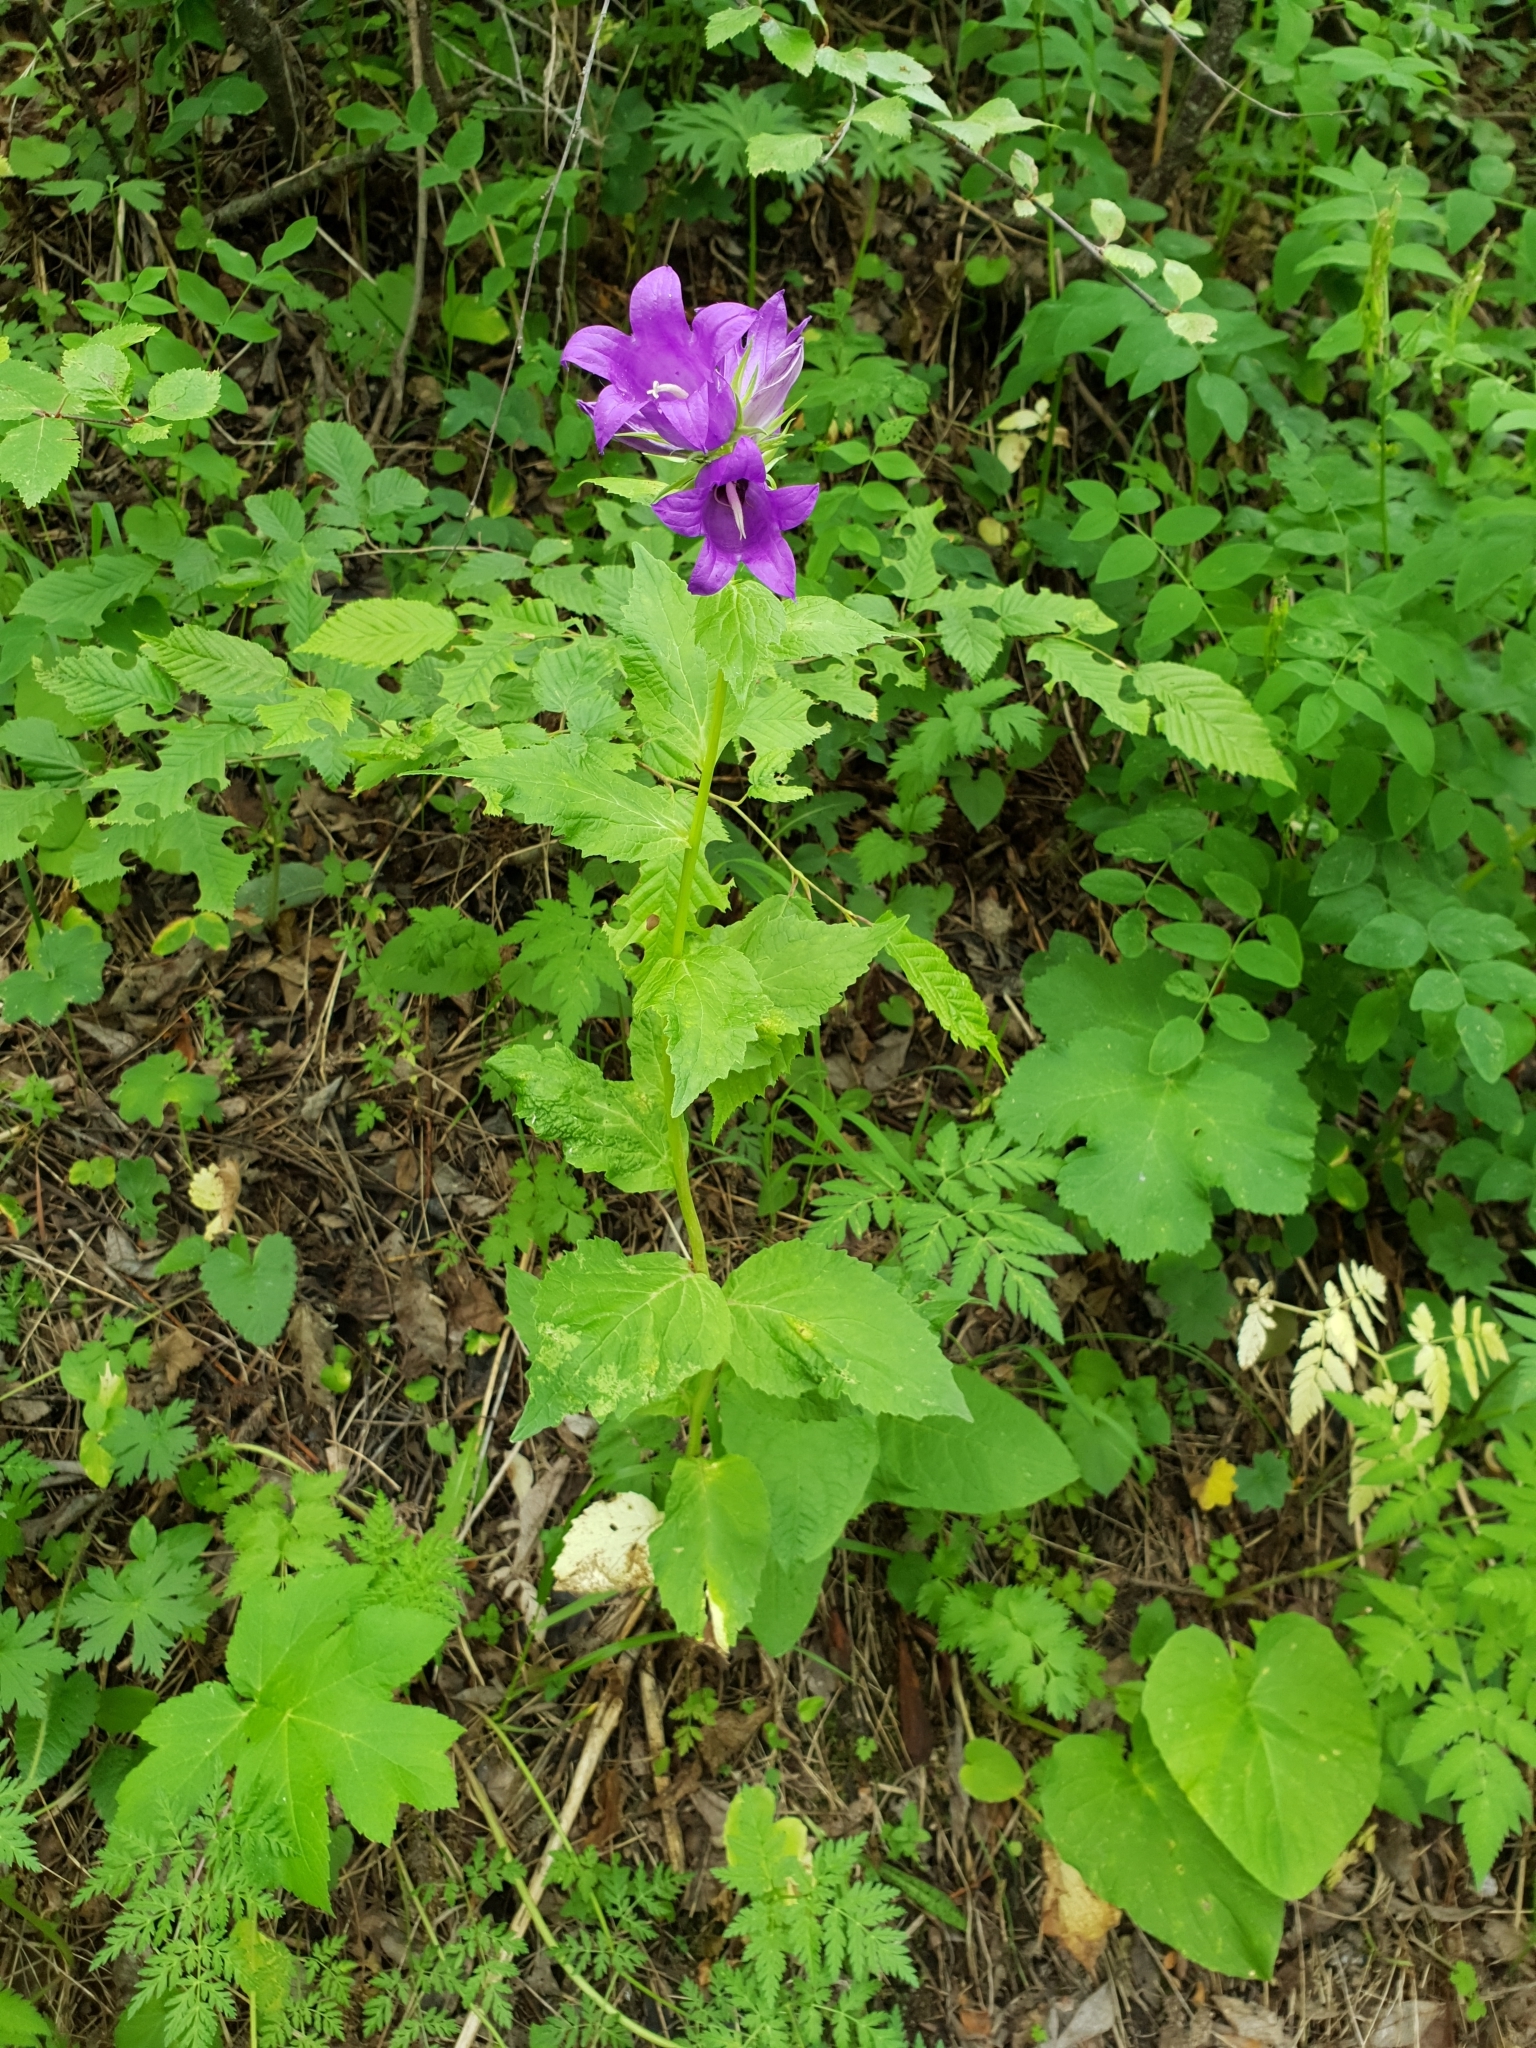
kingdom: Plantae
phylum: Tracheophyta
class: Magnoliopsida
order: Asterales
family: Campanulaceae
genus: Campanula
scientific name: Campanula latifolia
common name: Giant bellflower
